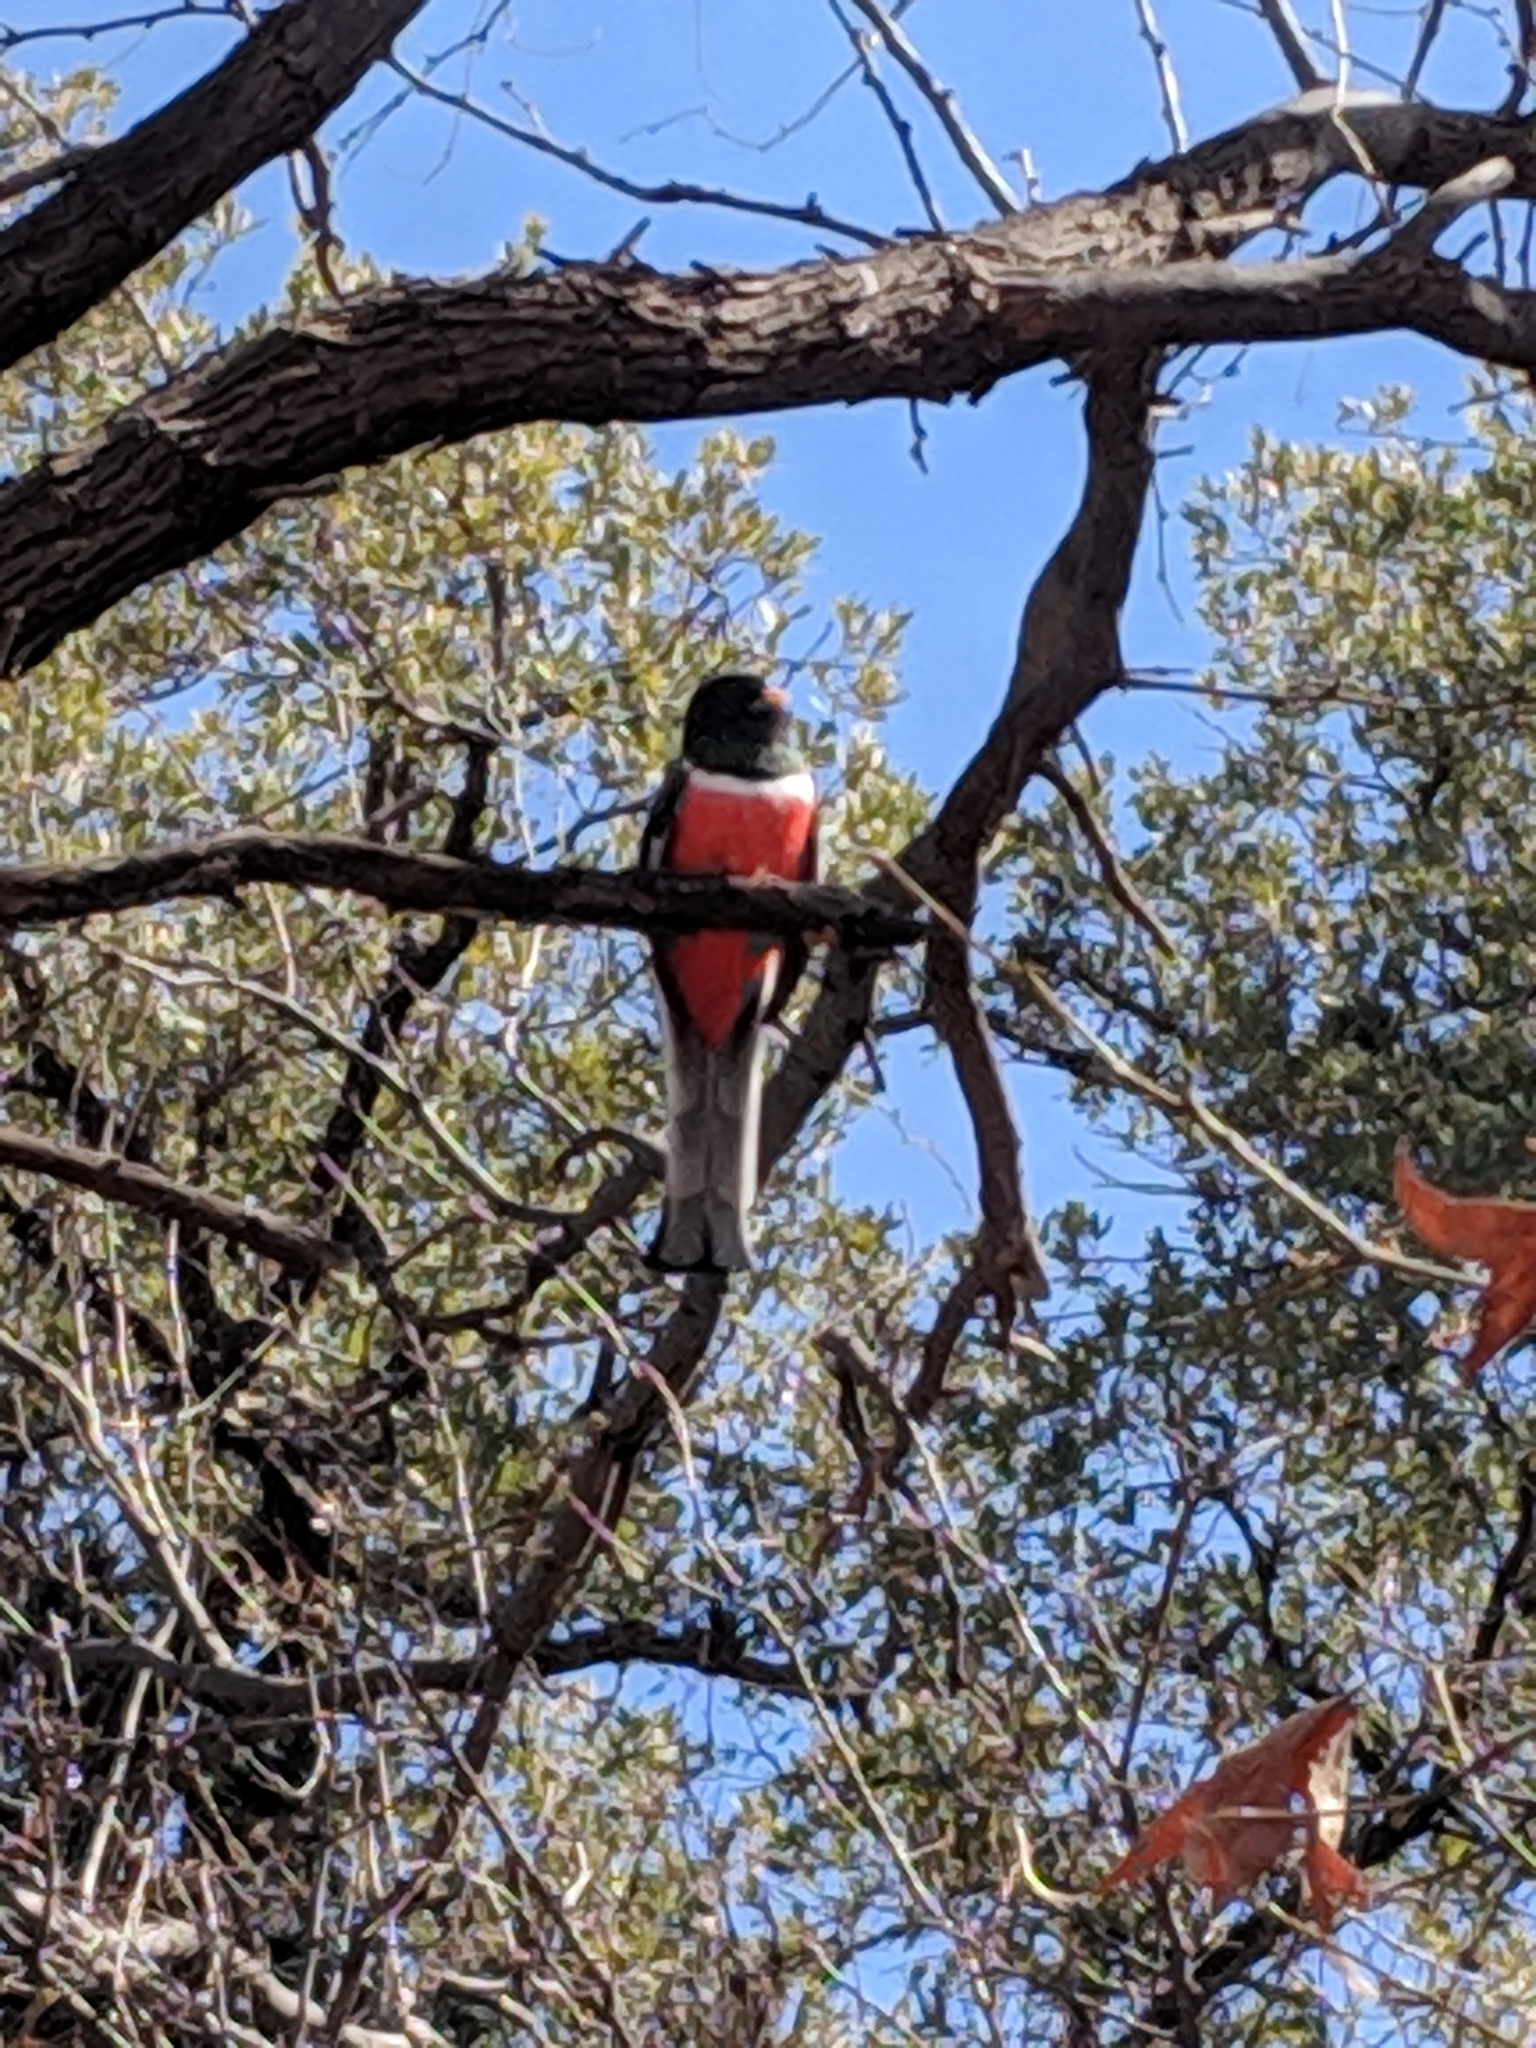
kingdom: Animalia
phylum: Chordata
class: Aves
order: Trogoniformes
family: Trogonidae
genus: Trogon
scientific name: Trogon elegans
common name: Elegant trogon
